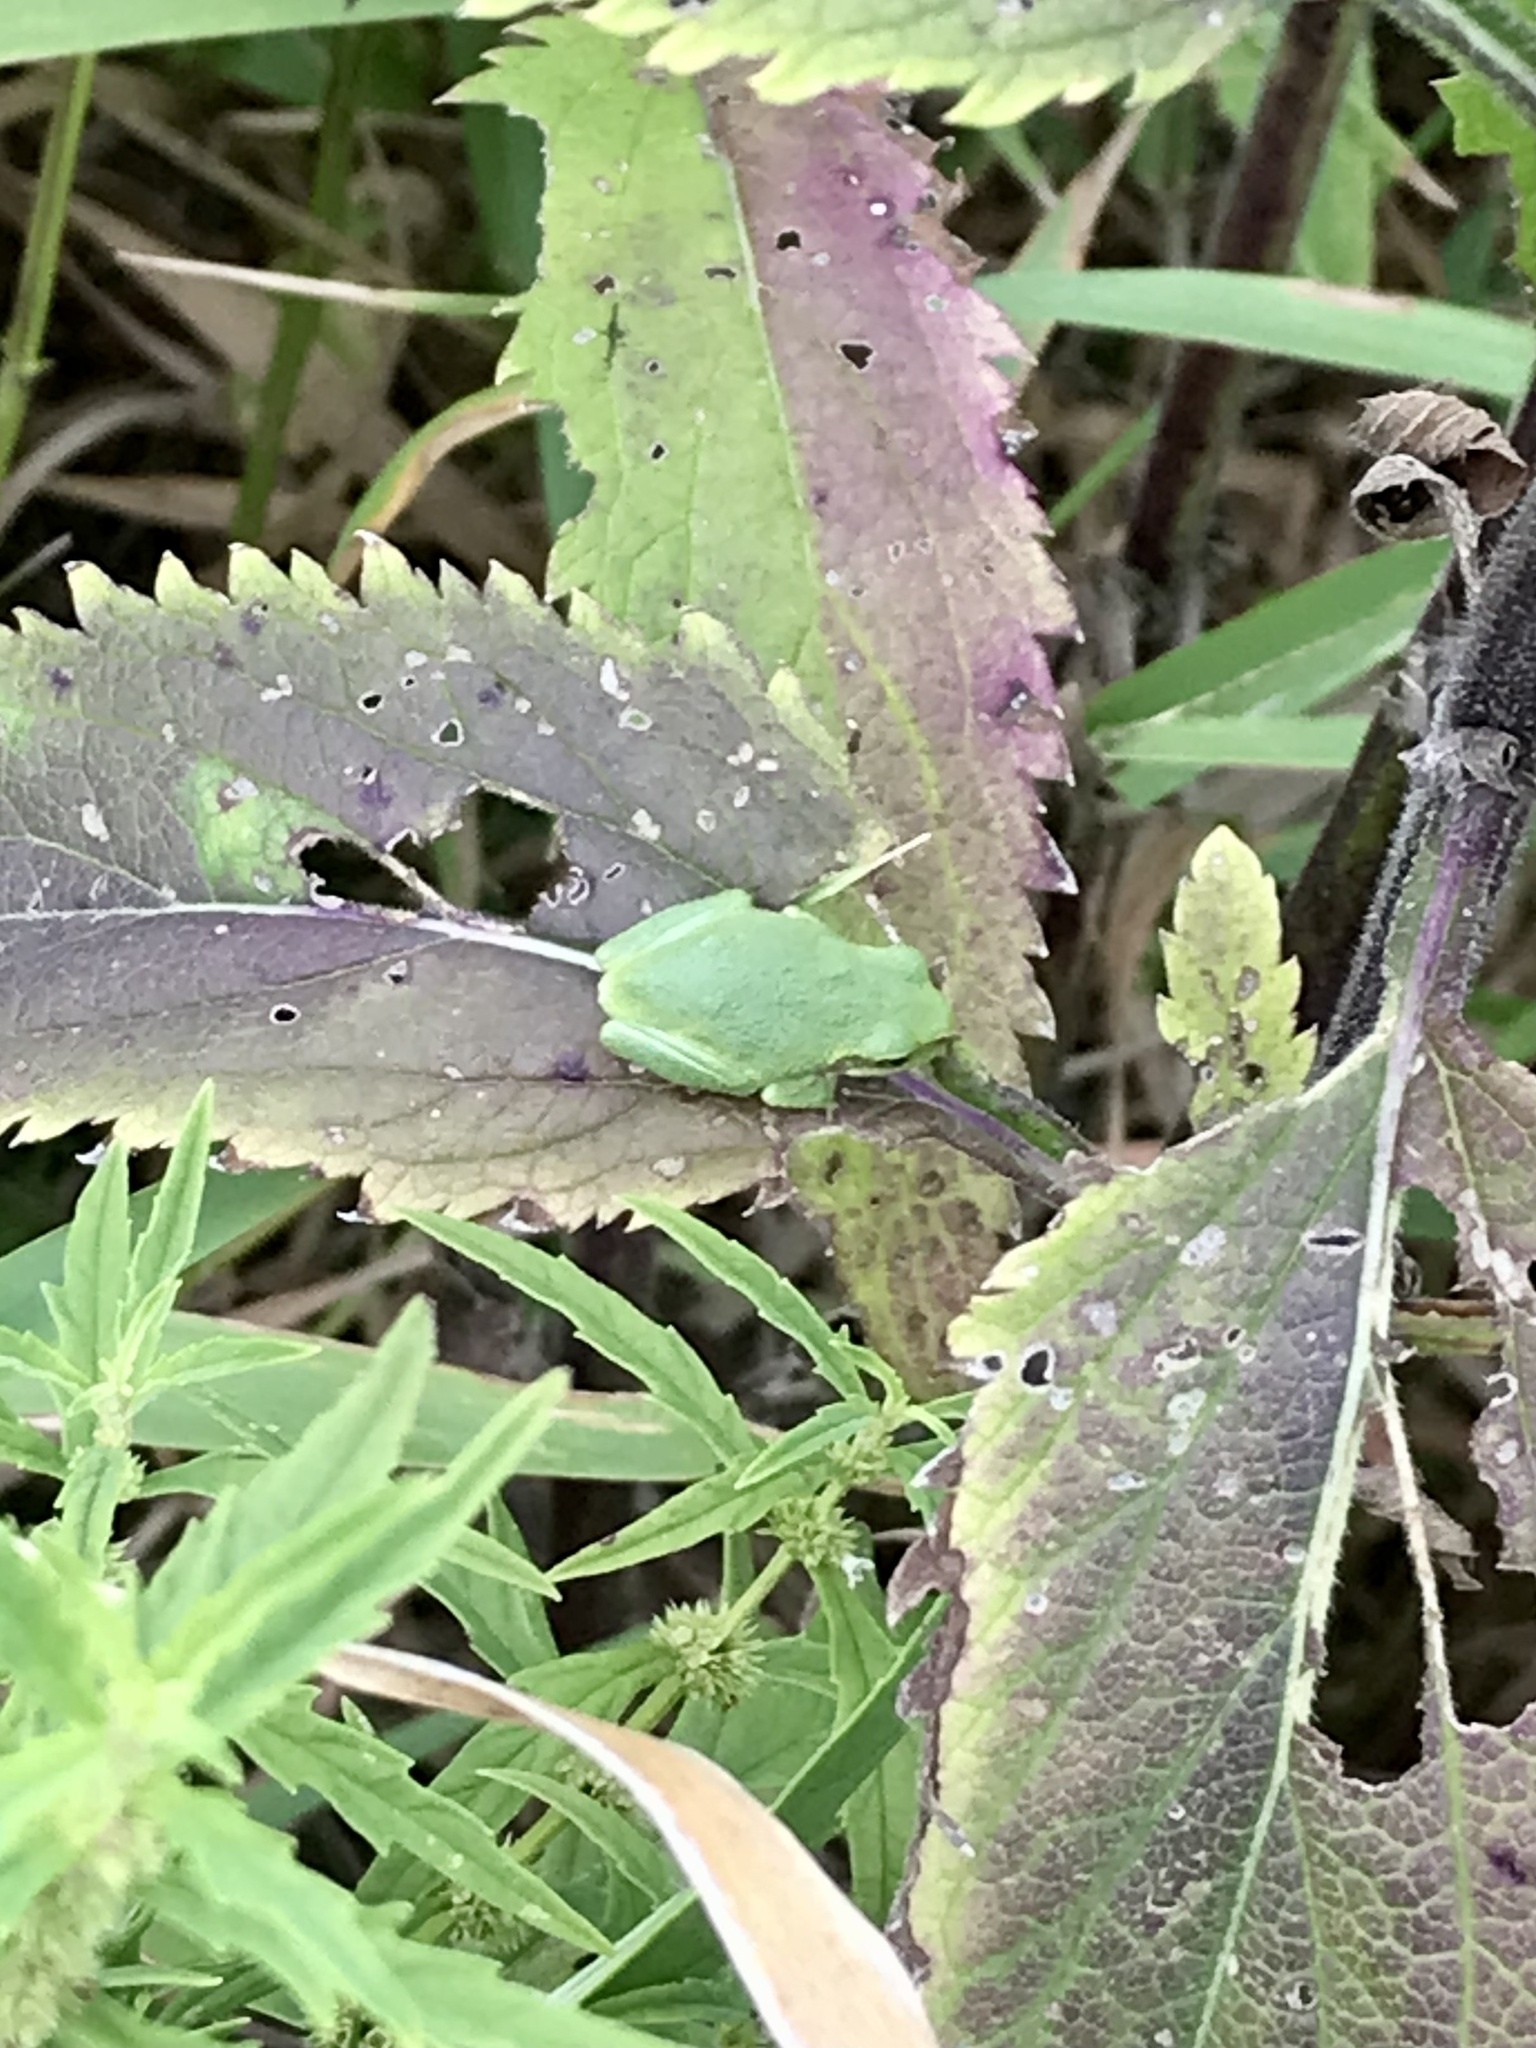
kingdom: Animalia
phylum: Chordata
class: Amphibia
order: Anura
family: Hylidae
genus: Hyla
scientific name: Hyla
